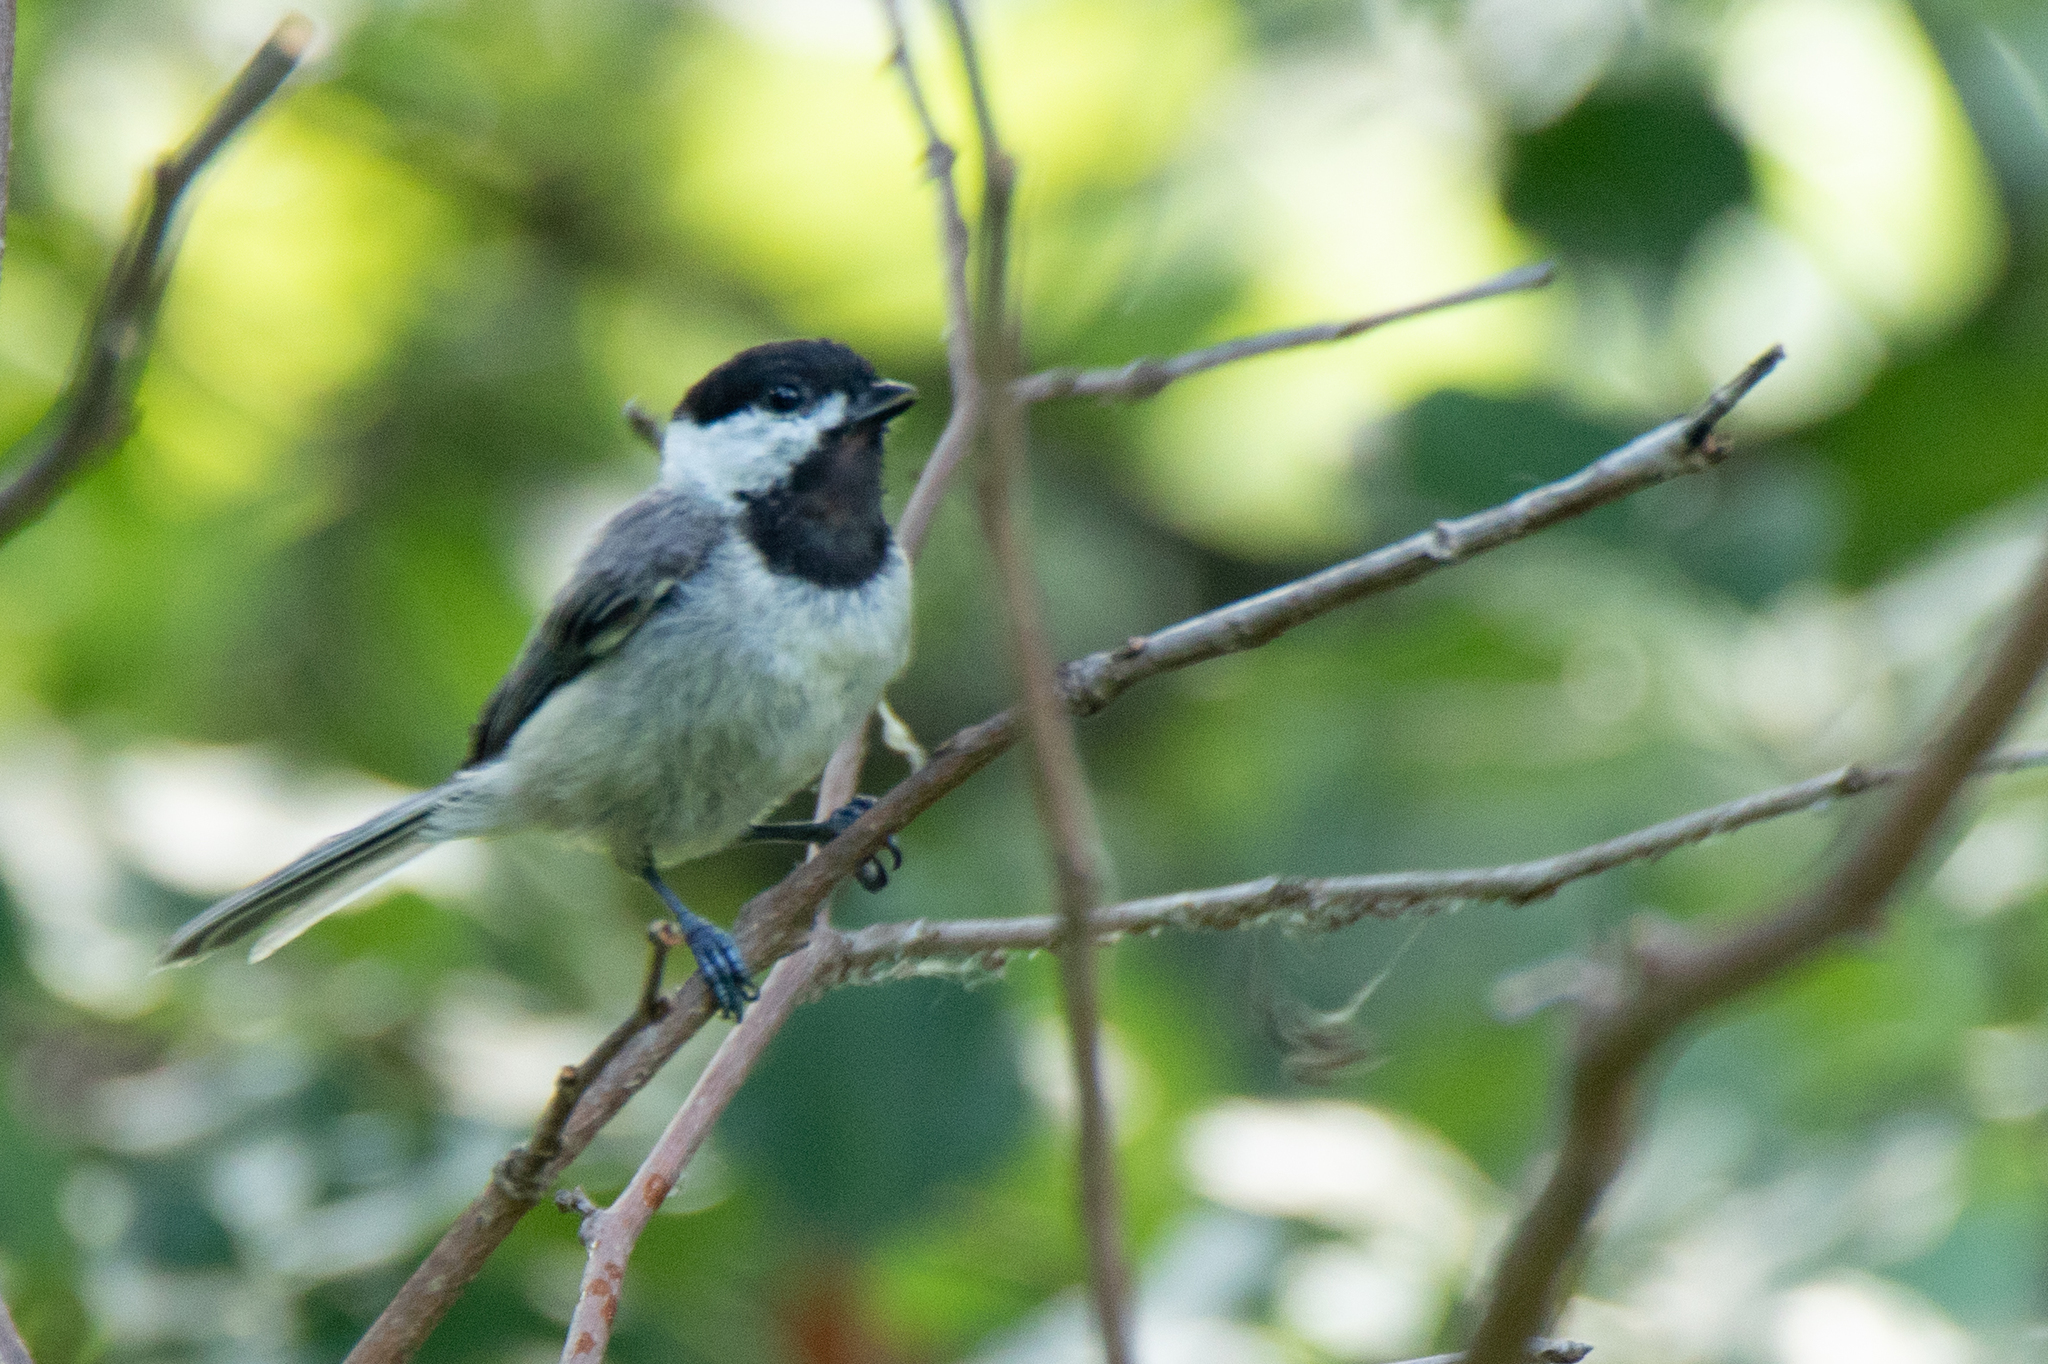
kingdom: Animalia
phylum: Chordata
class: Aves
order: Passeriformes
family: Paridae
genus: Poecile
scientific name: Poecile carolinensis
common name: Carolina chickadee
